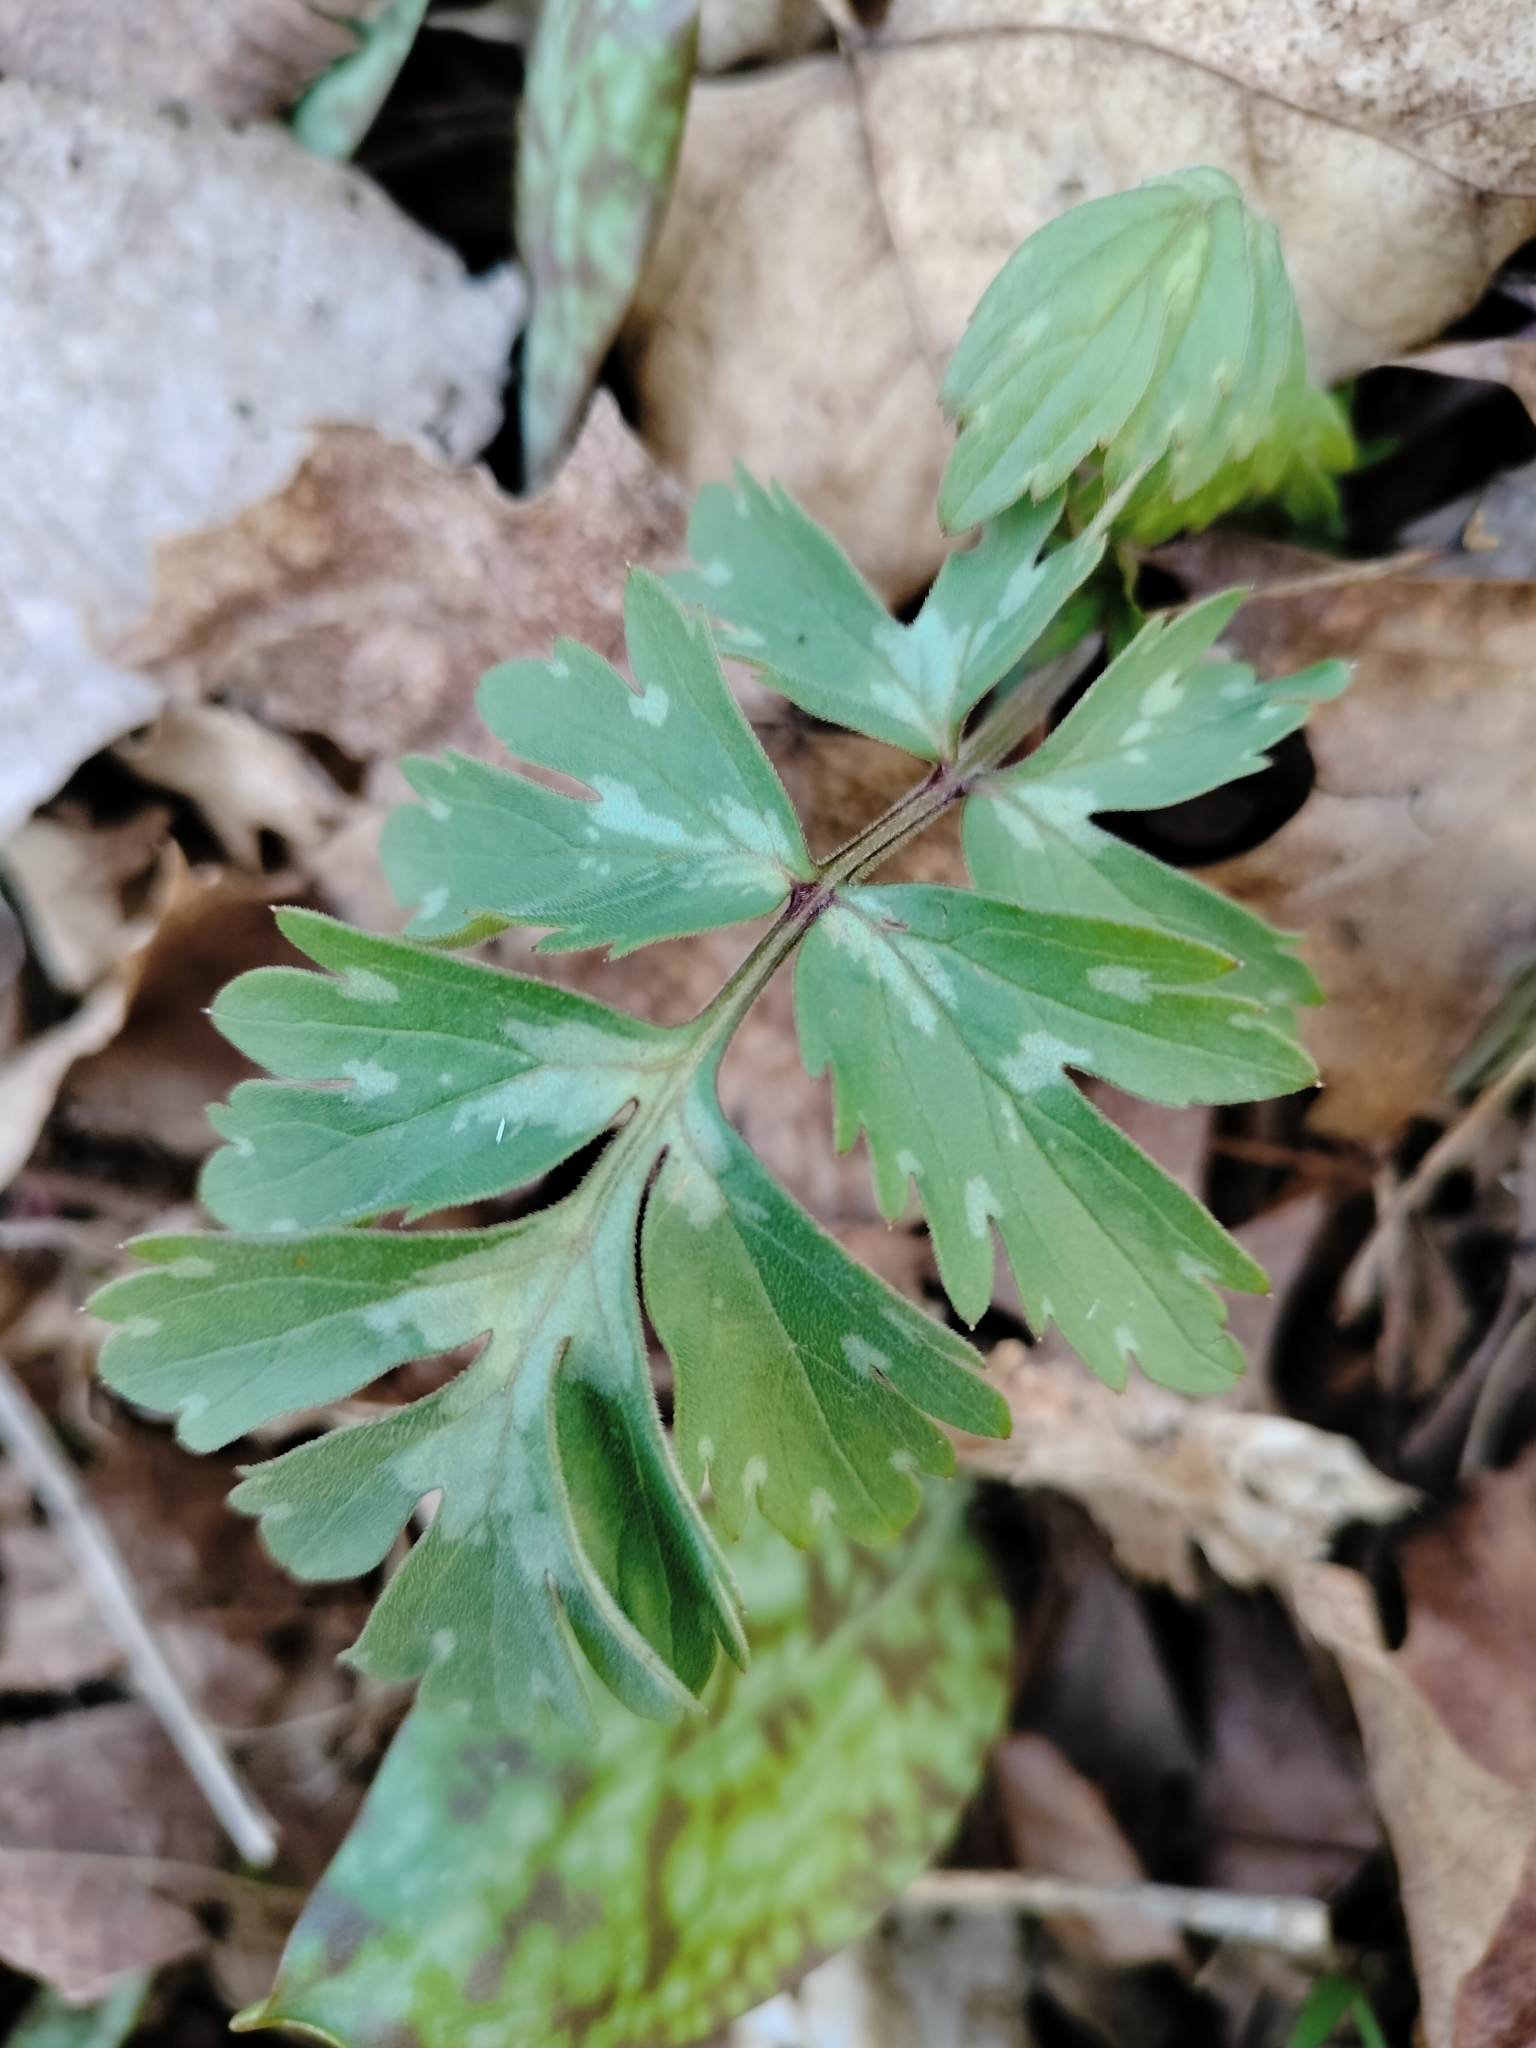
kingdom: Plantae
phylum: Tracheophyta
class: Magnoliopsida
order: Boraginales
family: Hydrophyllaceae
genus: Hydrophyllum
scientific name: Hydrophyllum virginianum
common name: Virginia waterleaf
